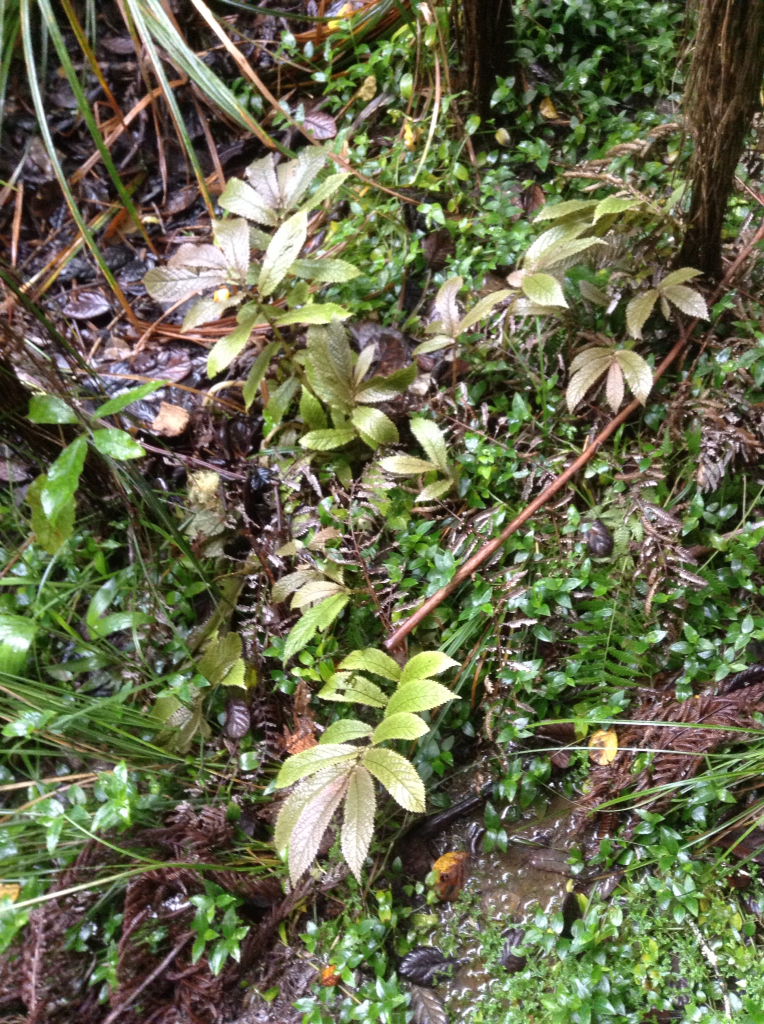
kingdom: Plantae
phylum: Tracheophyta
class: Magnoliopsida
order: Rosales
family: Urticaceae
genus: Elatostema
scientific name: Elatostema rugosum
